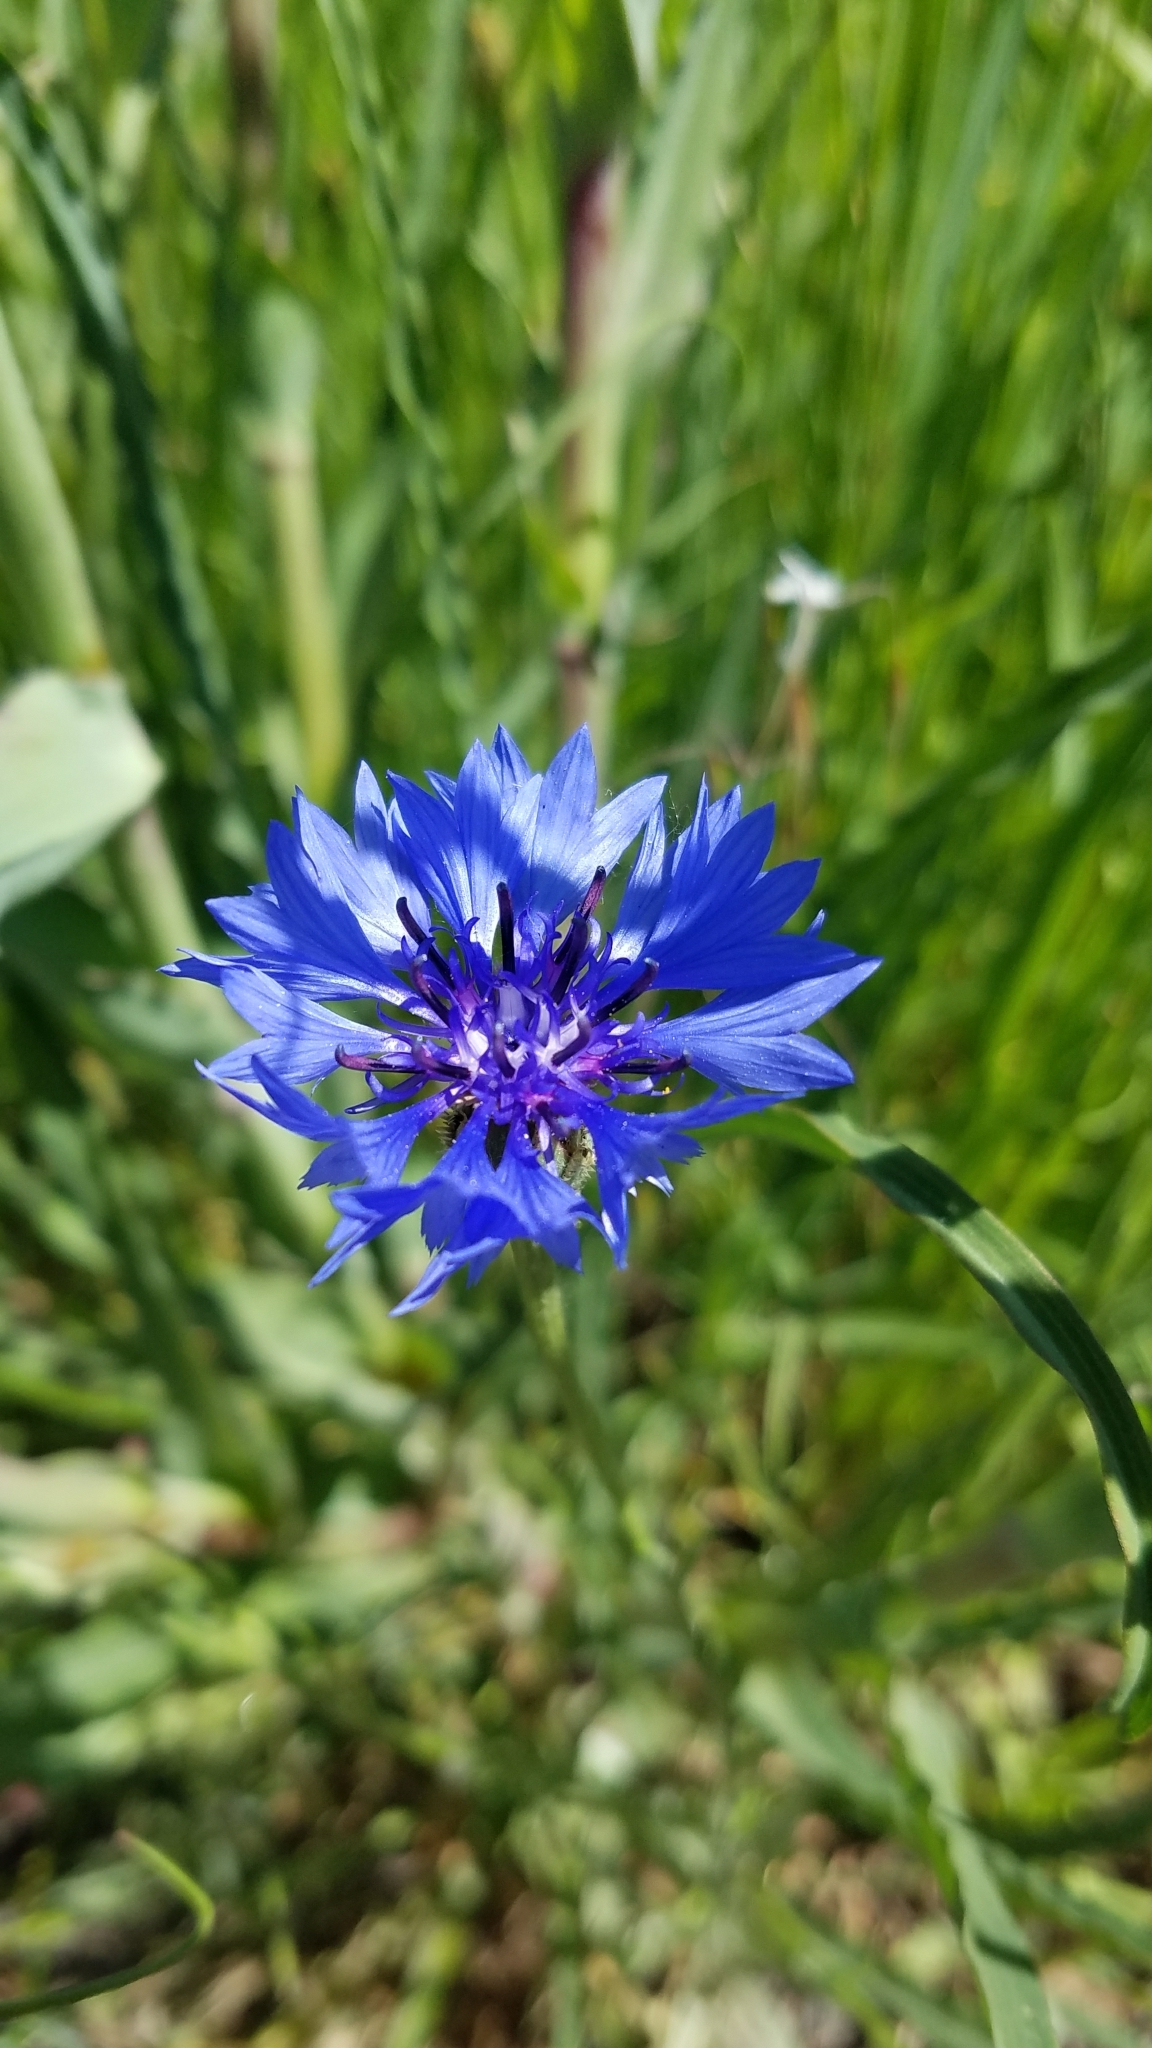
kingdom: Plantae
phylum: Tracheophyta
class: Magnoliopsida
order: Asterales
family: Asteraceae
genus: Centaurea
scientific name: Centaurea cyanus
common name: Cornflower
